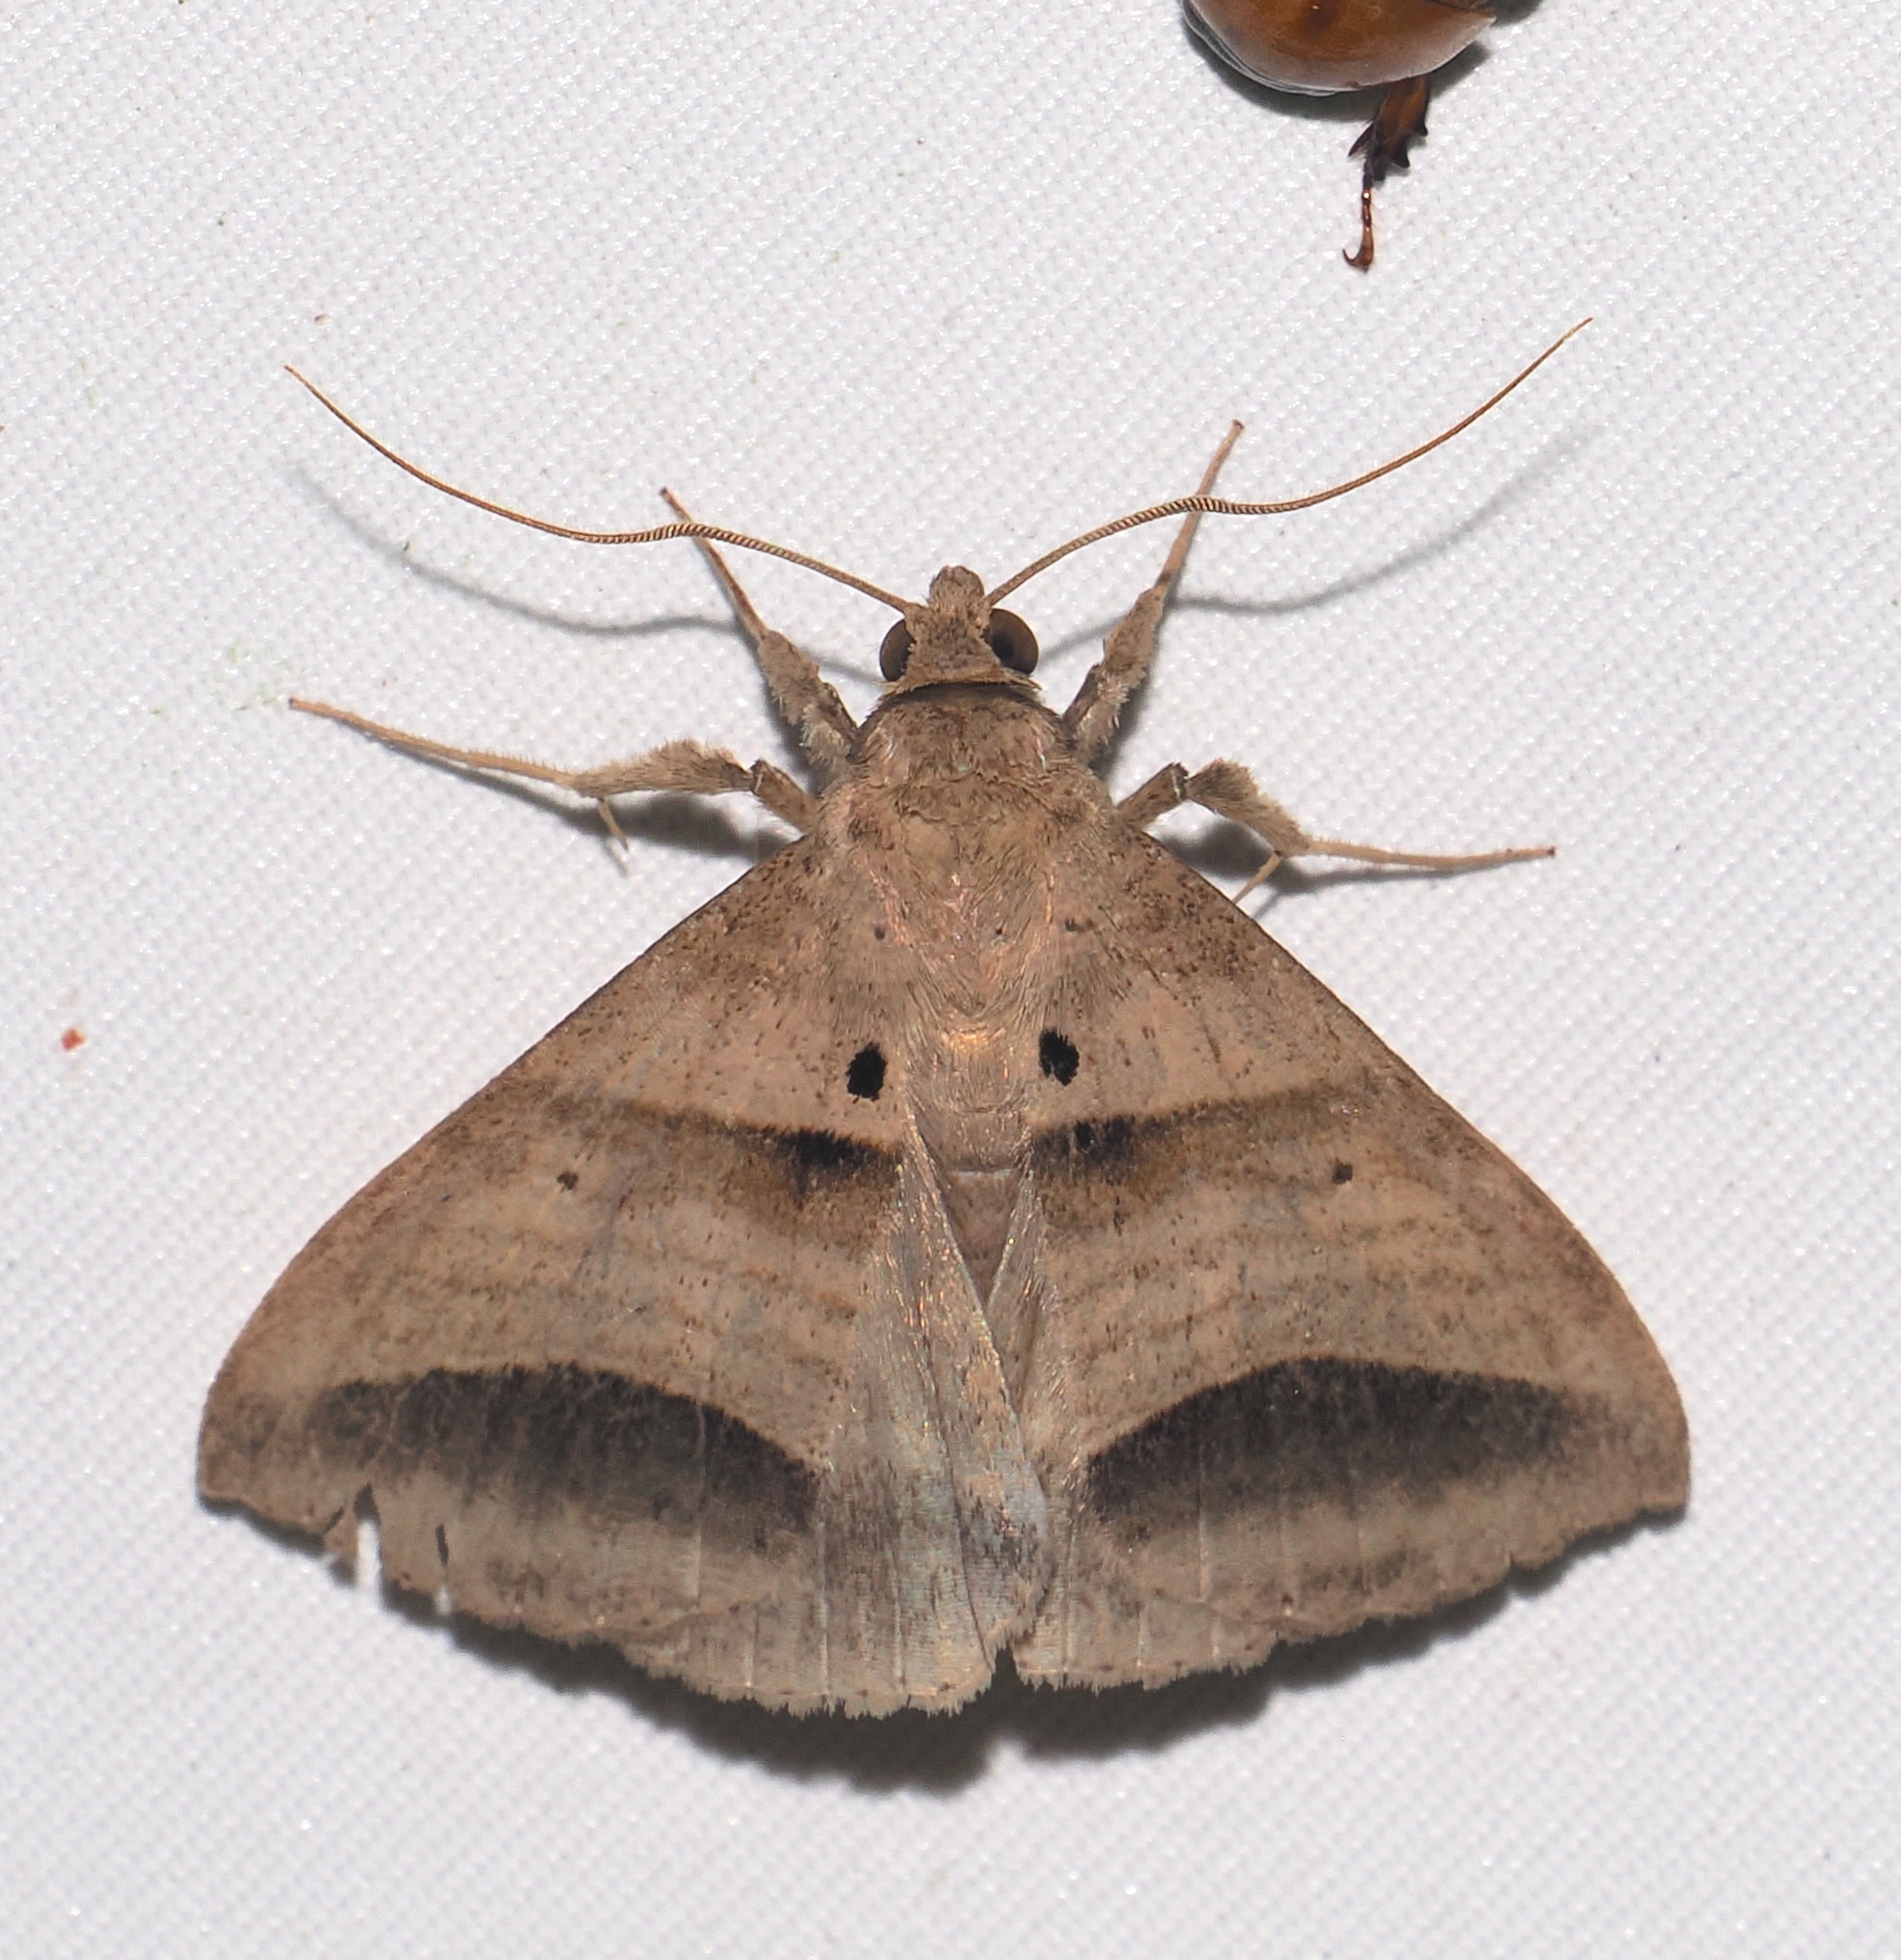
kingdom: Animalia
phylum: Arthropoda
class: Insecta
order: Lepidoptera
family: Erebidae
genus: Perasia
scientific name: Perasia helvina
